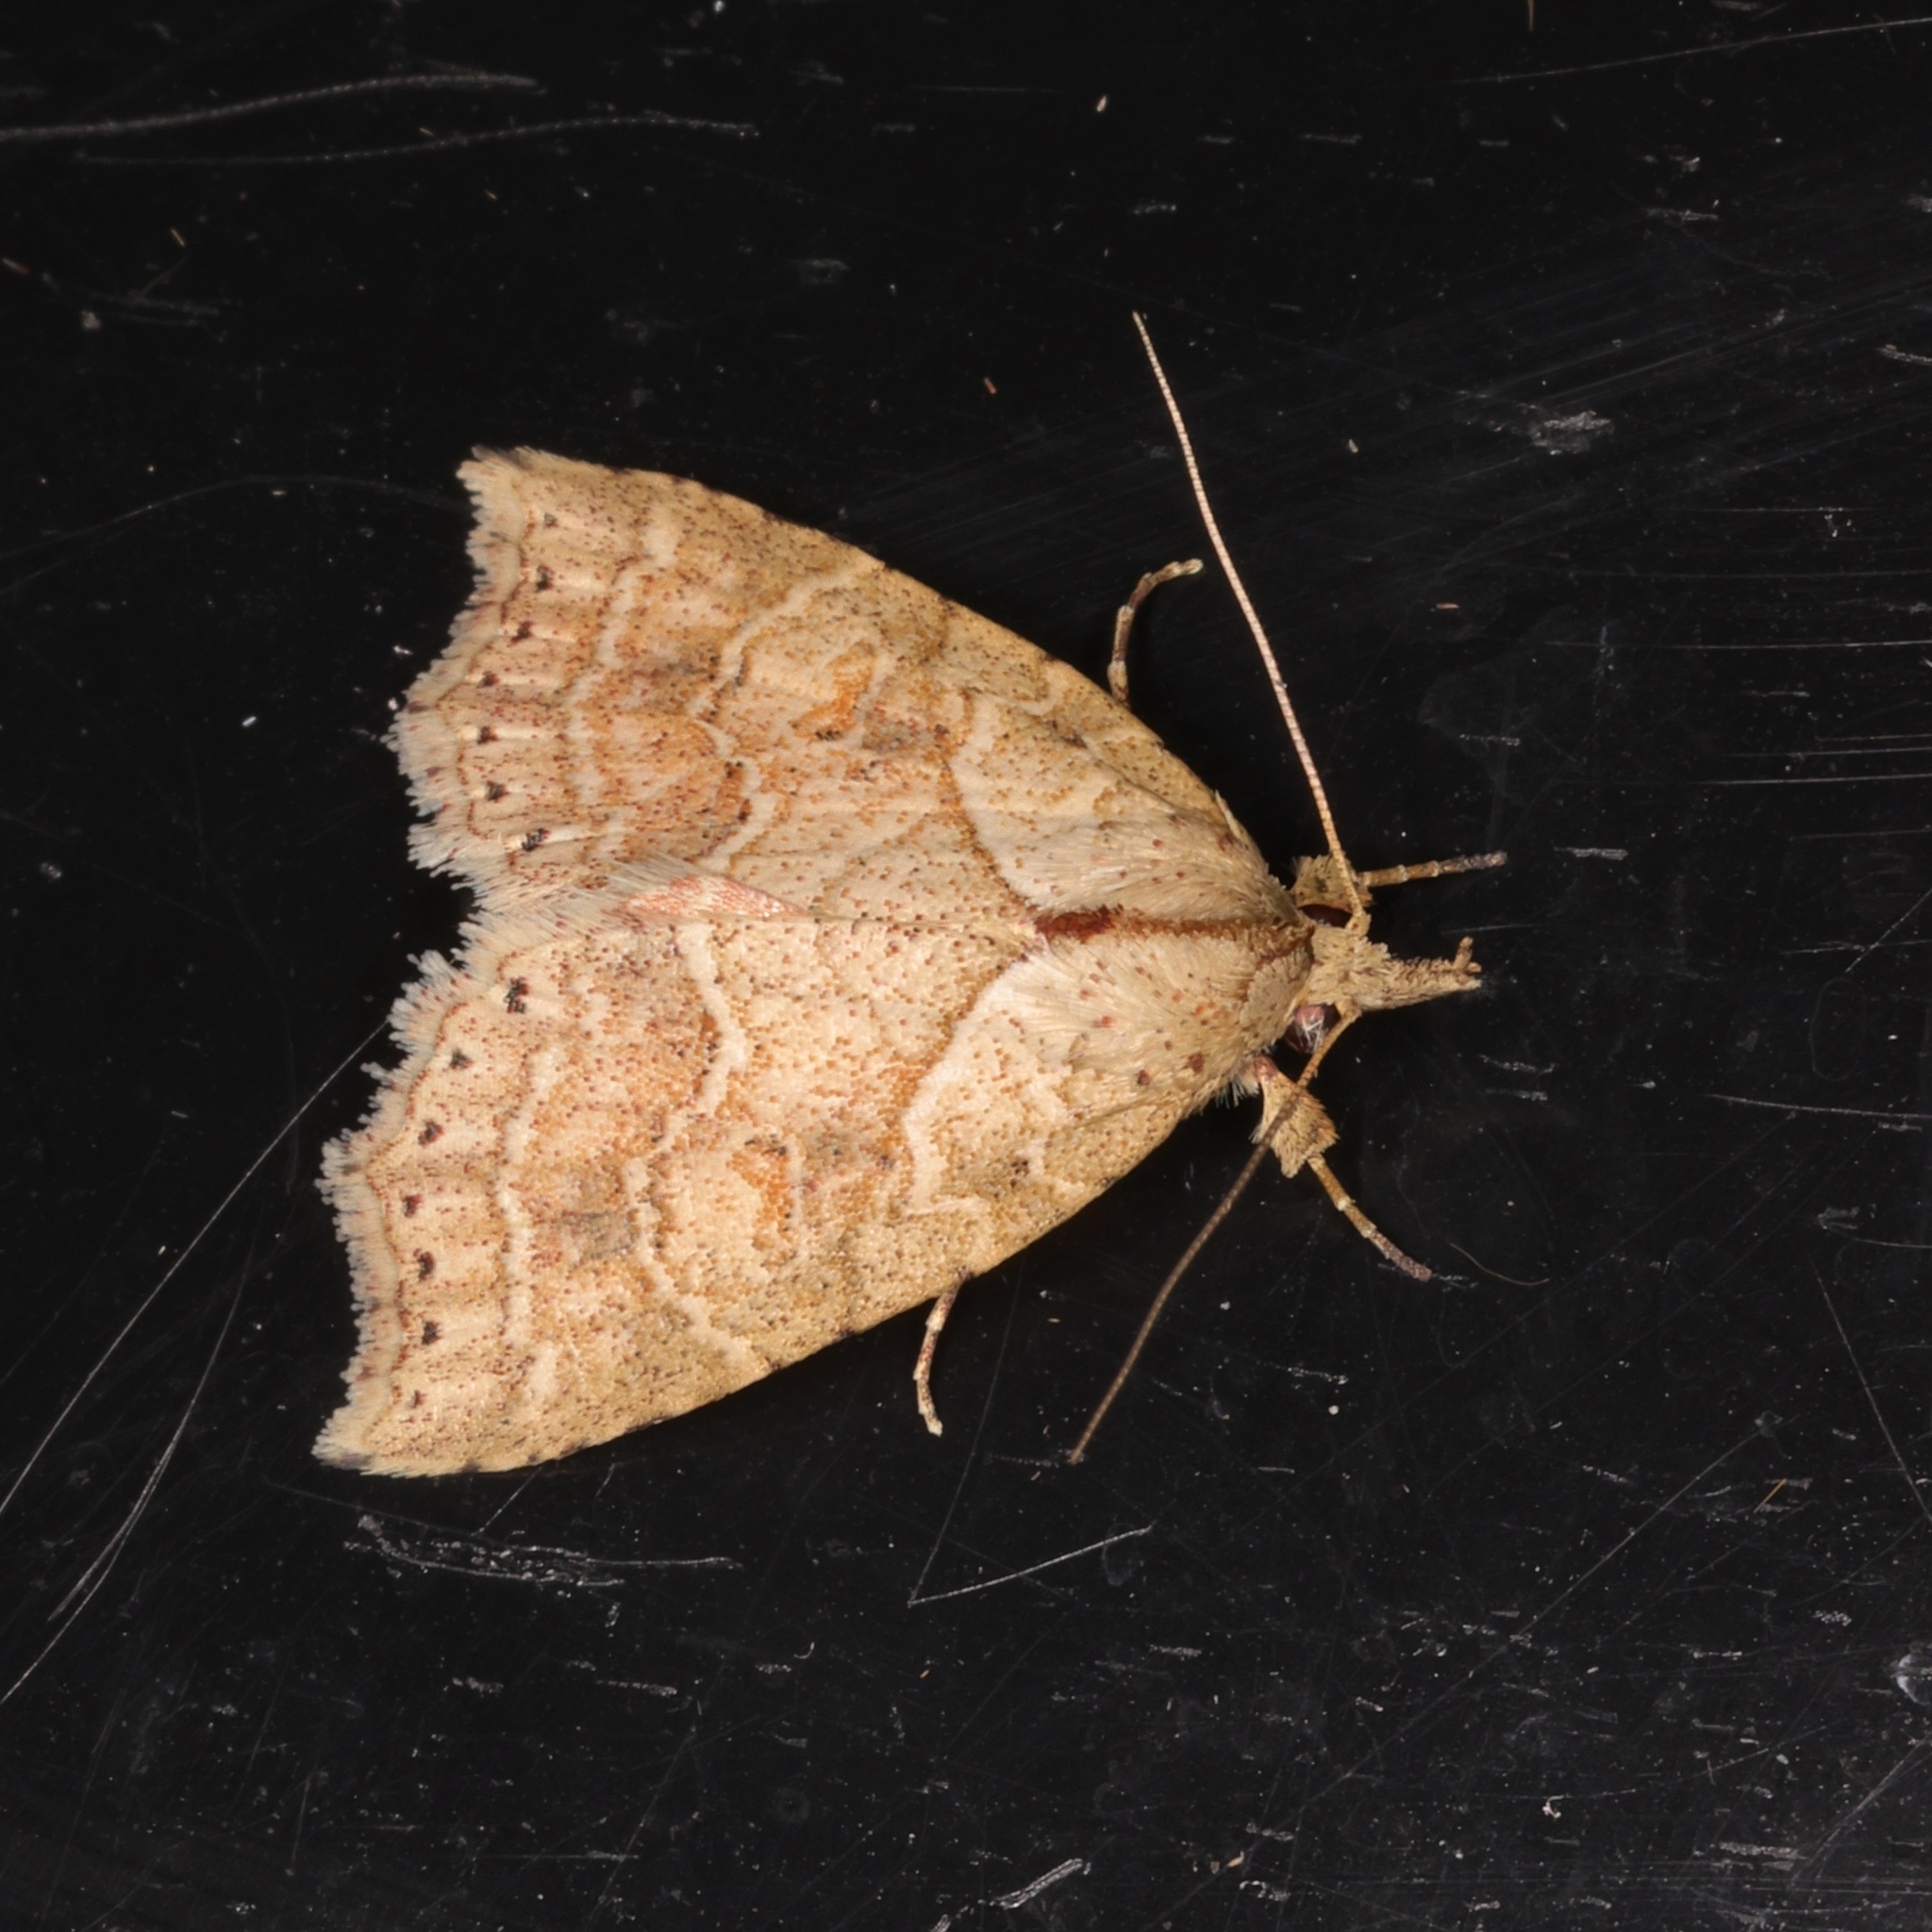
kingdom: Animalia
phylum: Arthropoda
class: Insecta
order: Lepidoptera
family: Erebidae
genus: Olulis
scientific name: Olulis puncticinctalis
